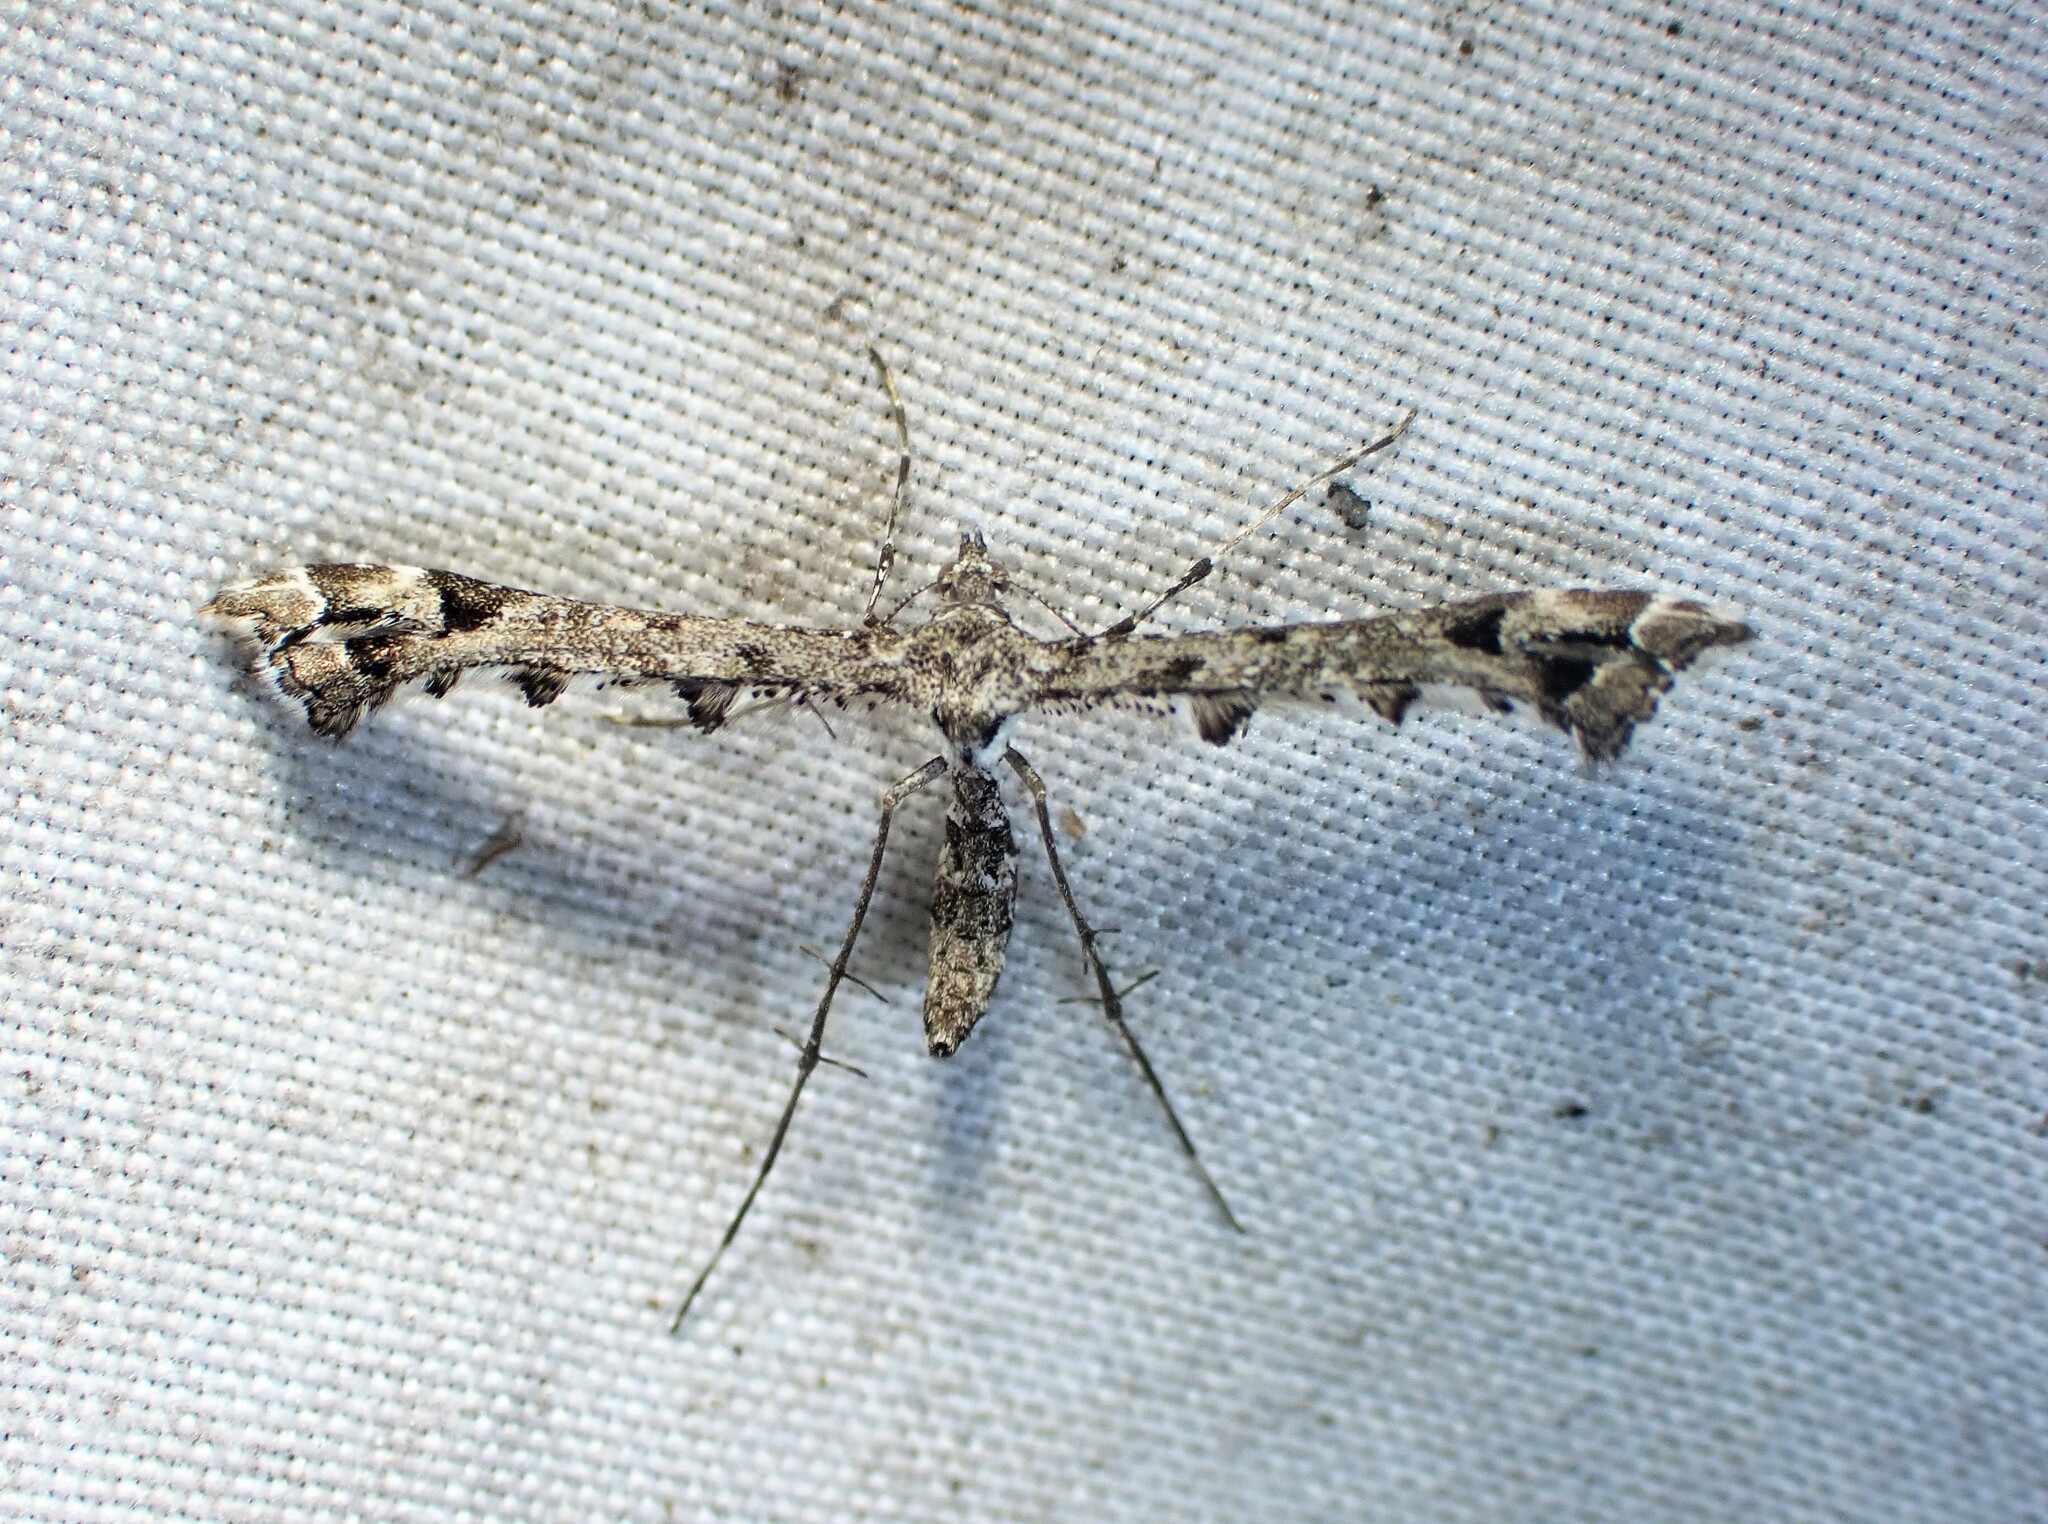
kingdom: Animalia
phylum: Arthropoda
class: Insecta
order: Lepidoptera
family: Pterophoridae
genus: Amblyptilia
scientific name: Amblyptilia pica
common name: Geranium plume moth
